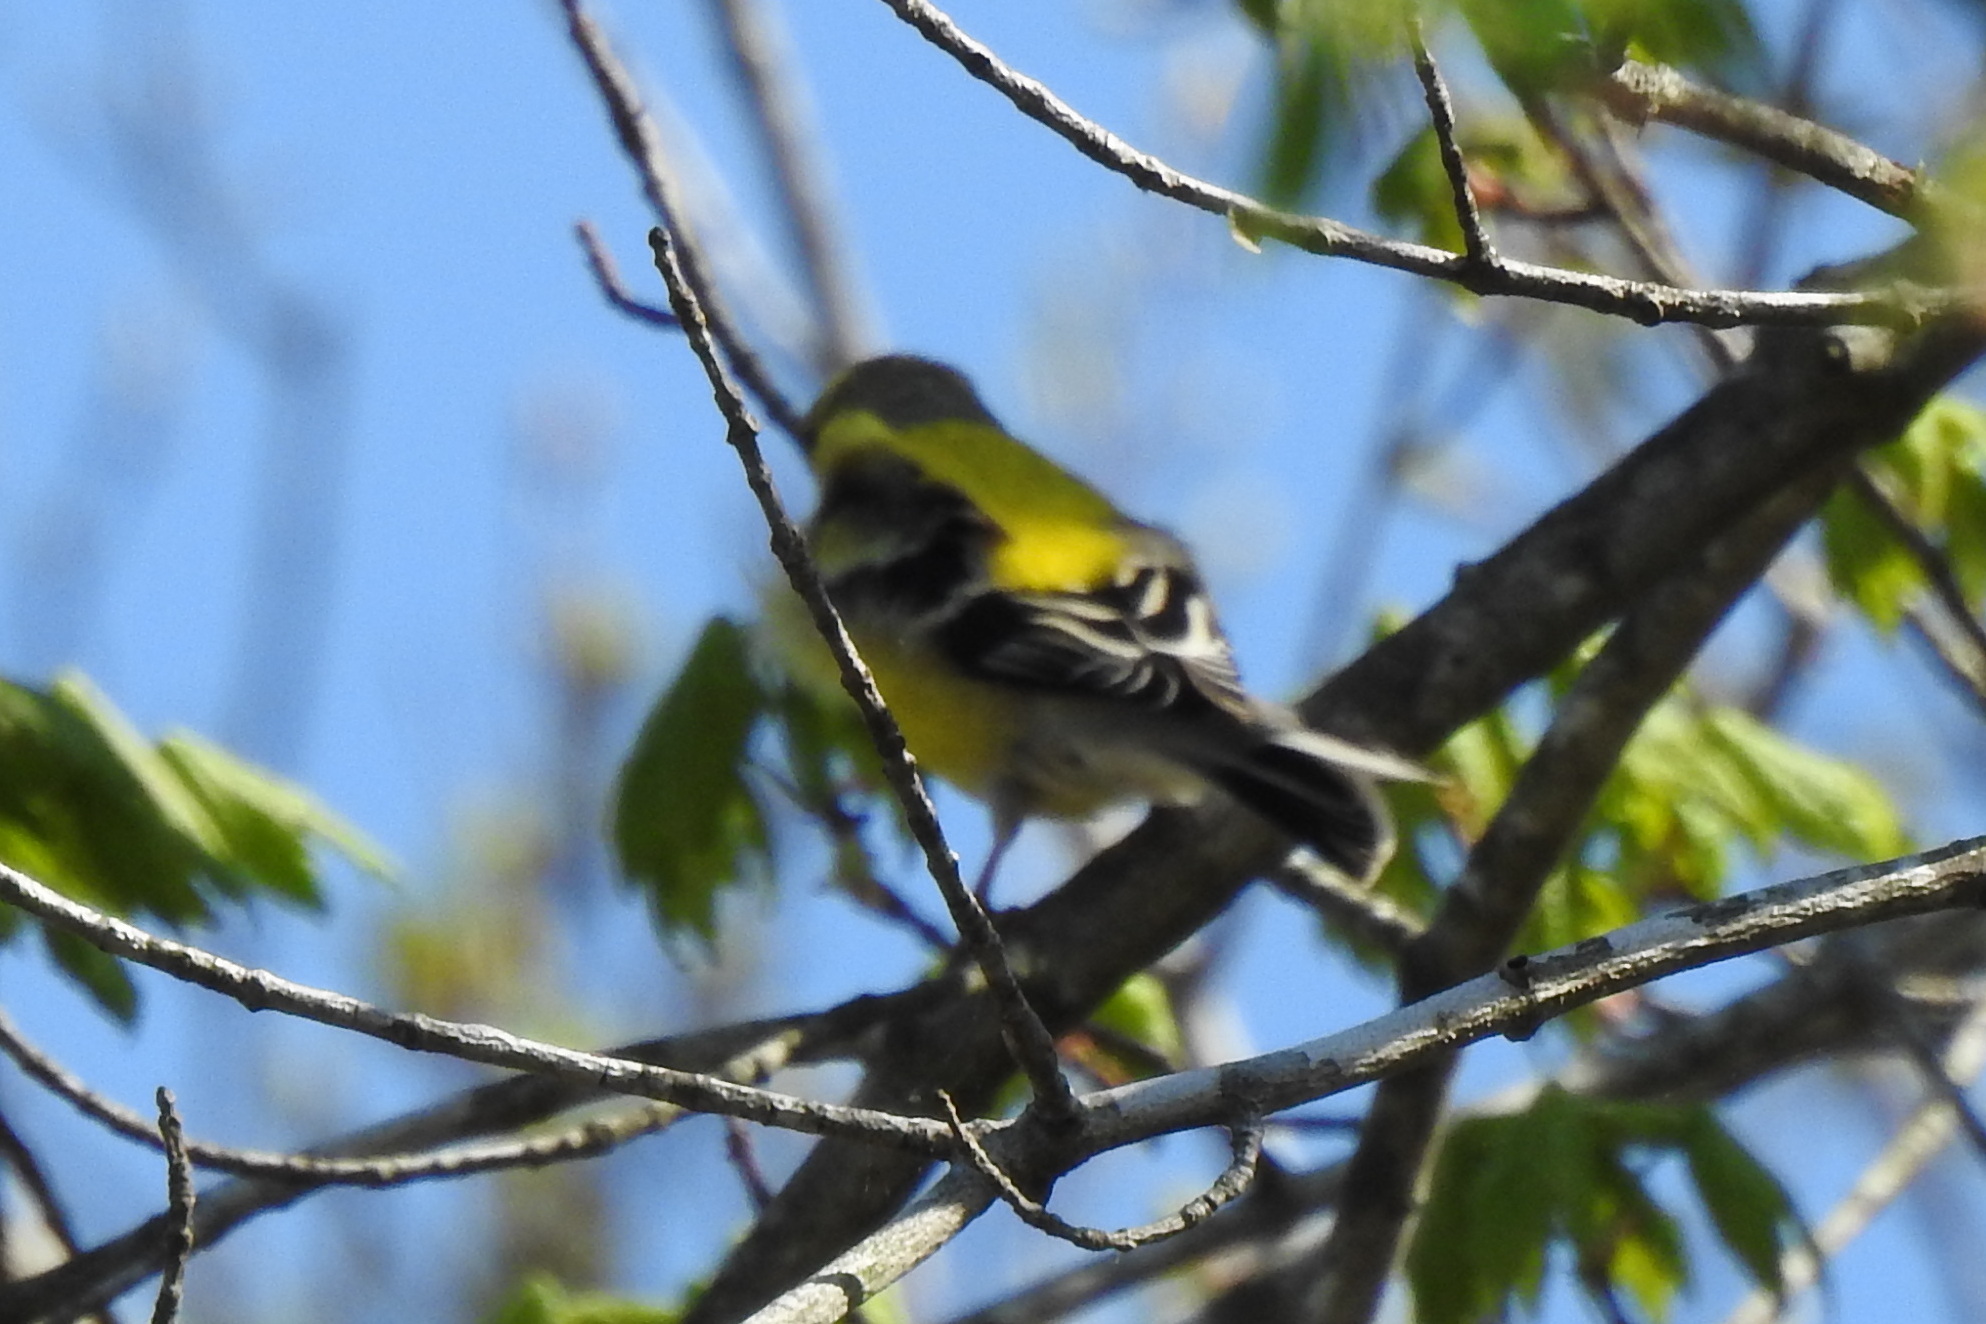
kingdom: Animalia
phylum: Chordata
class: Aves
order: Passeriformes
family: Fringillidae
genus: Spinus
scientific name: Spinus tristis
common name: American goldfinch
